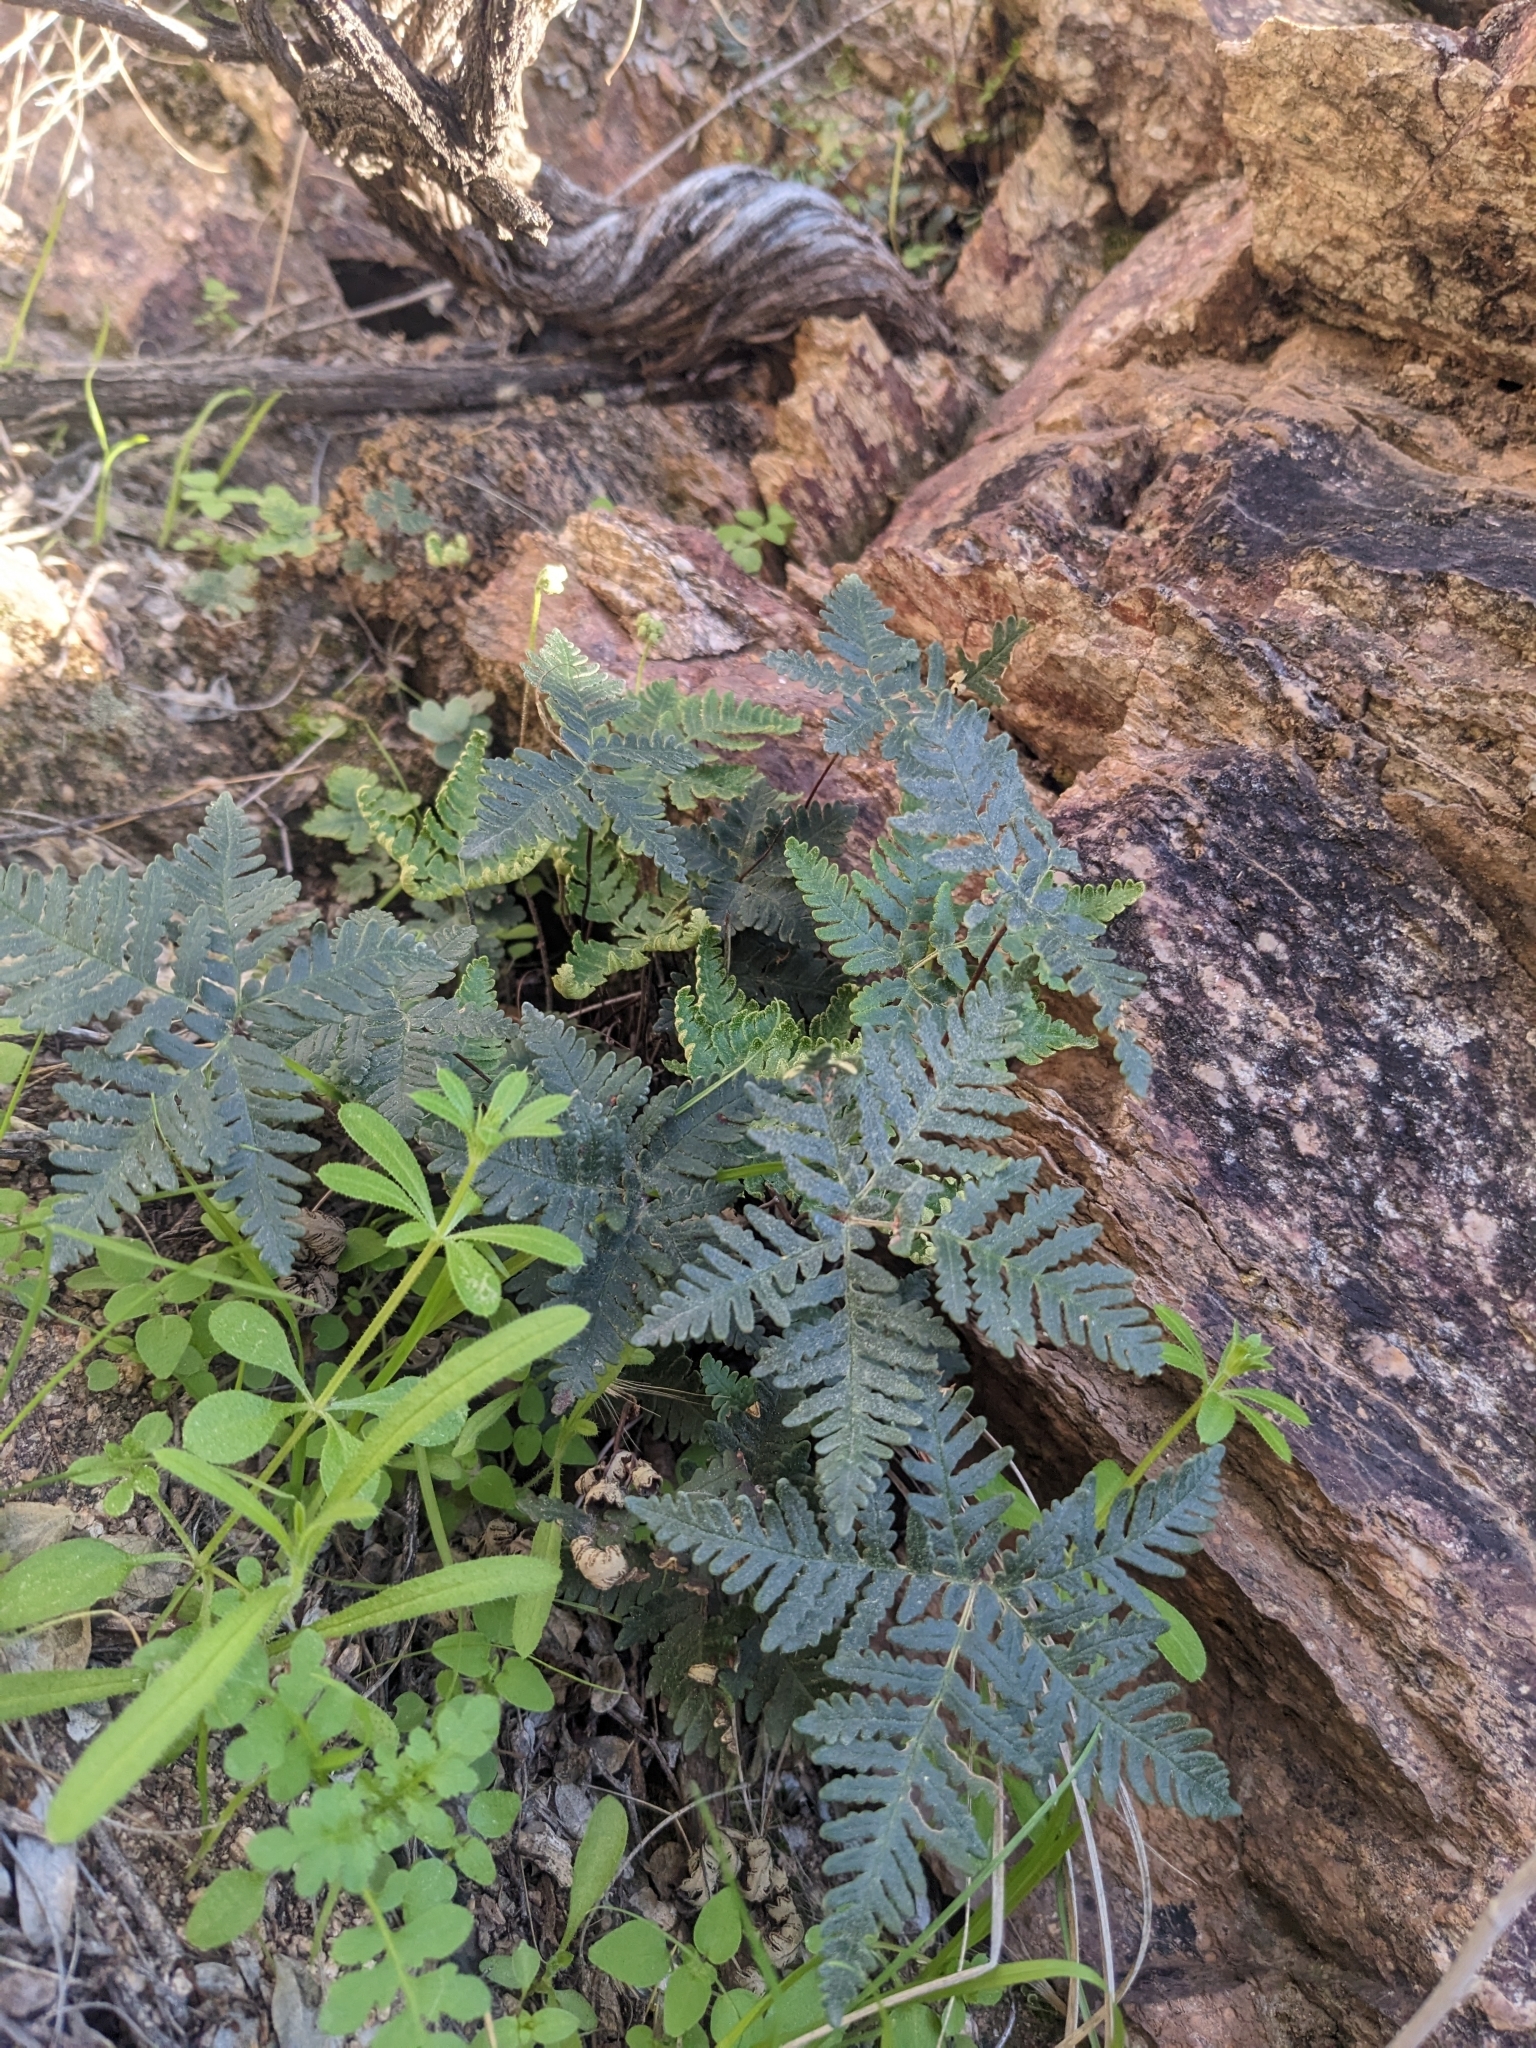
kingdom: Plantae
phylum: Tracheophyta
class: Polypodiopsida
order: Polypodiales
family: Pteridaceae
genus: Notholaena
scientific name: Notholaena standleyi
